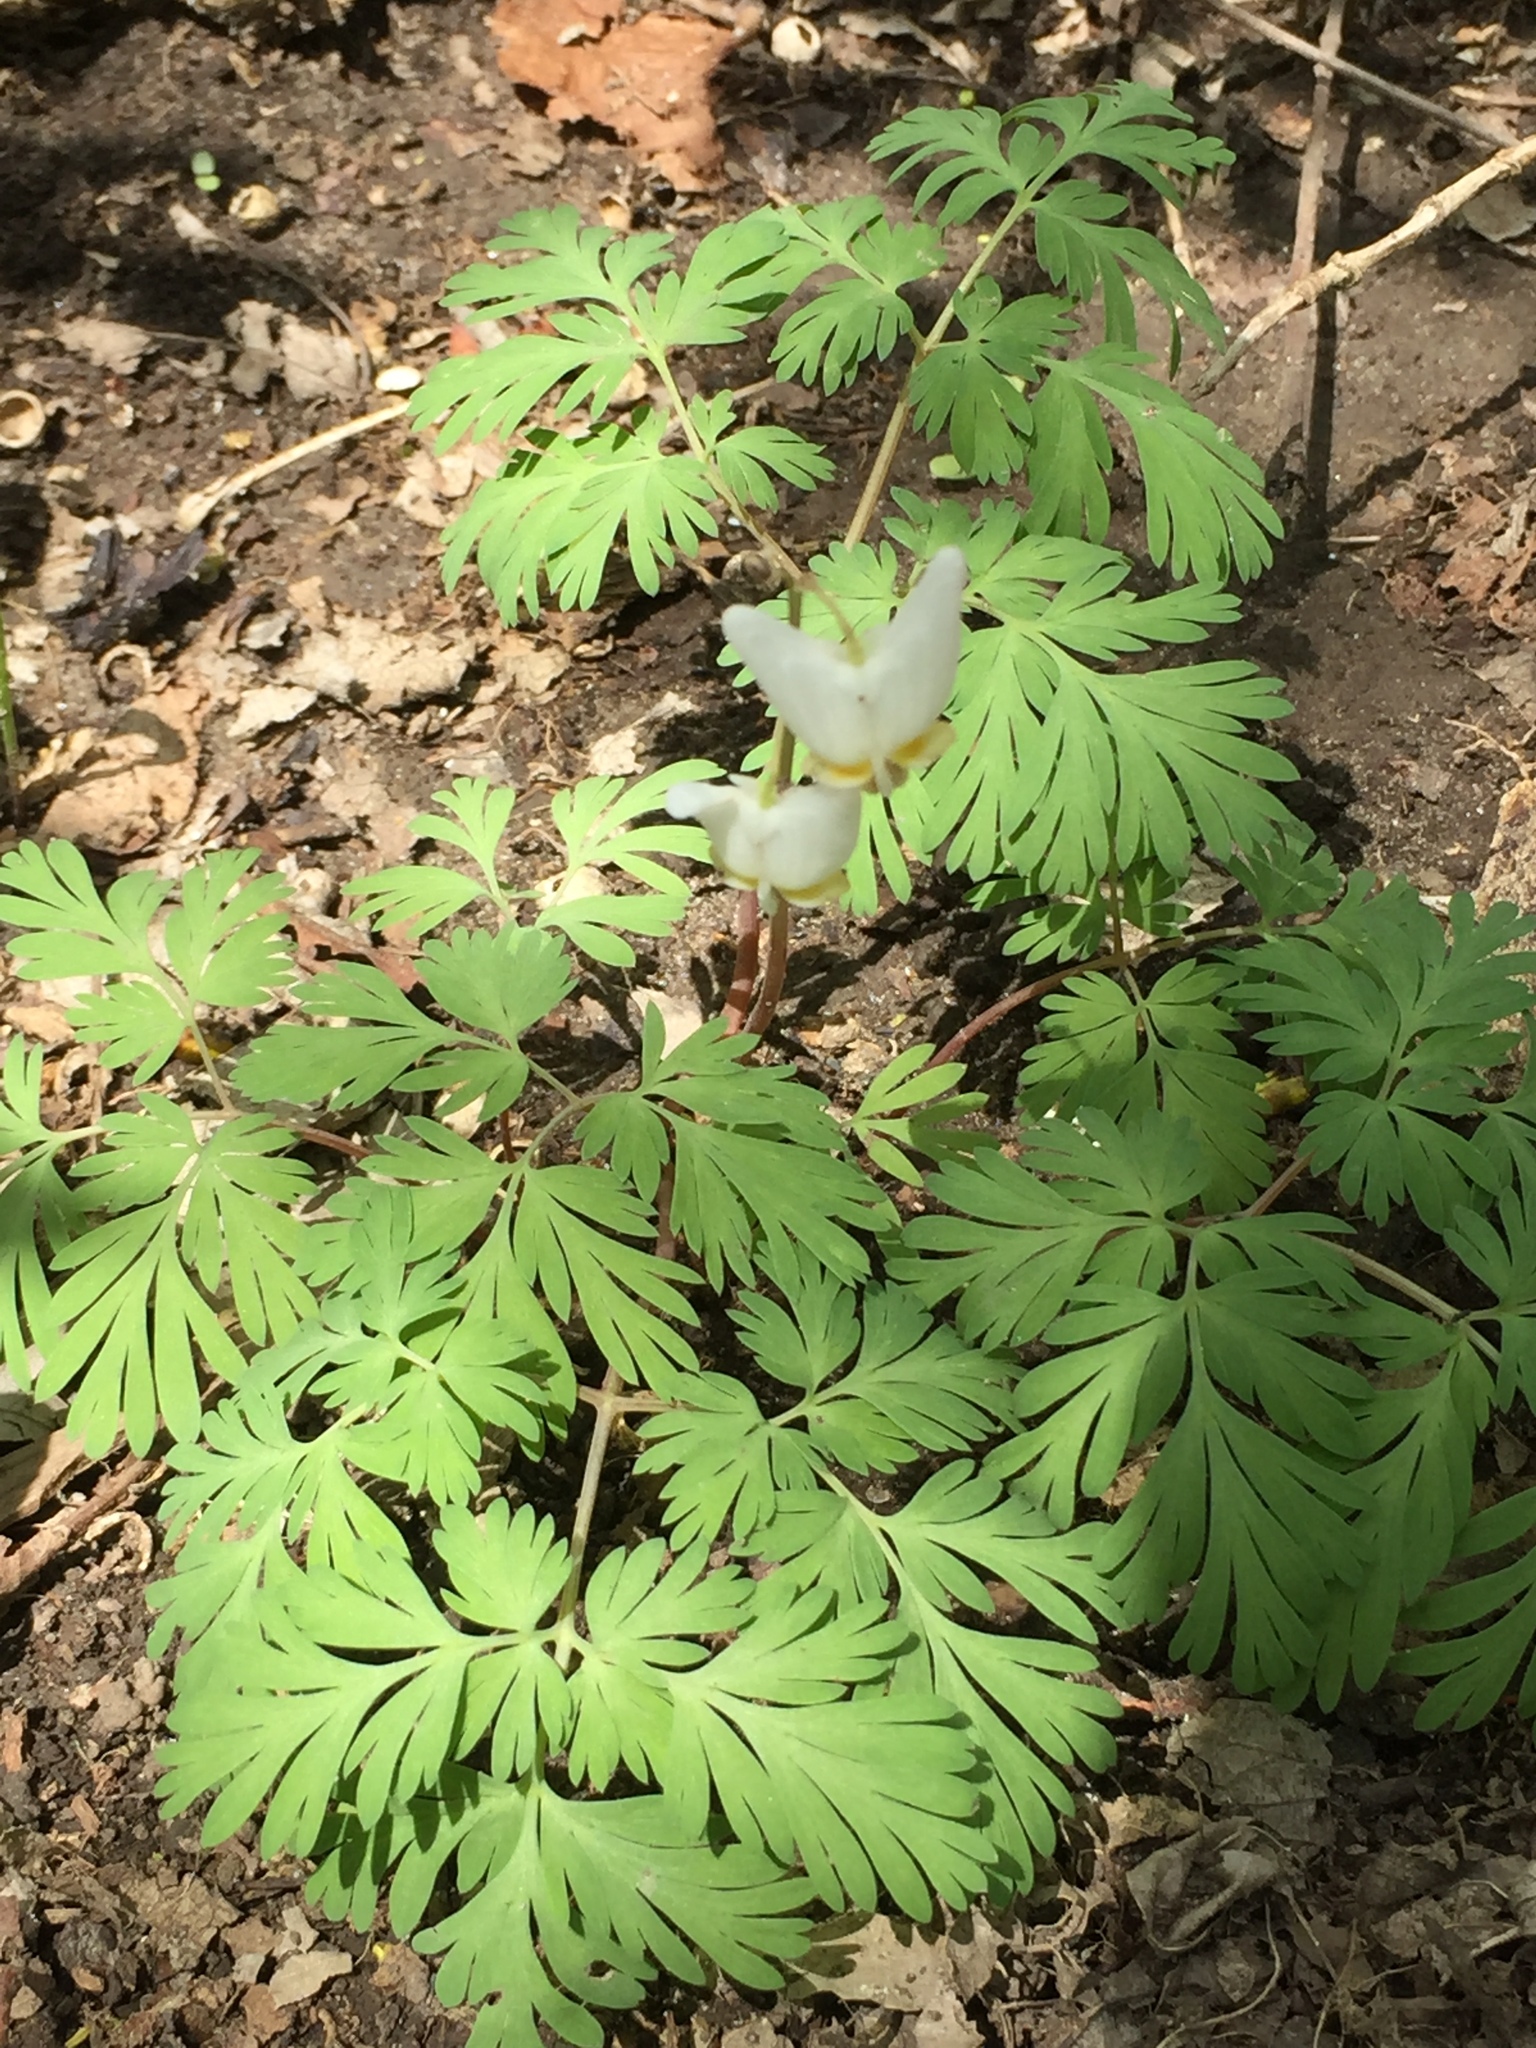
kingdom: Plantae
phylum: Tracheophyta
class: Magnoliopsida
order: Ranunculales
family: Papaveraceae
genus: Dicentra
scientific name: Dicentra cucullaria
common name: Dutchman's breeches
